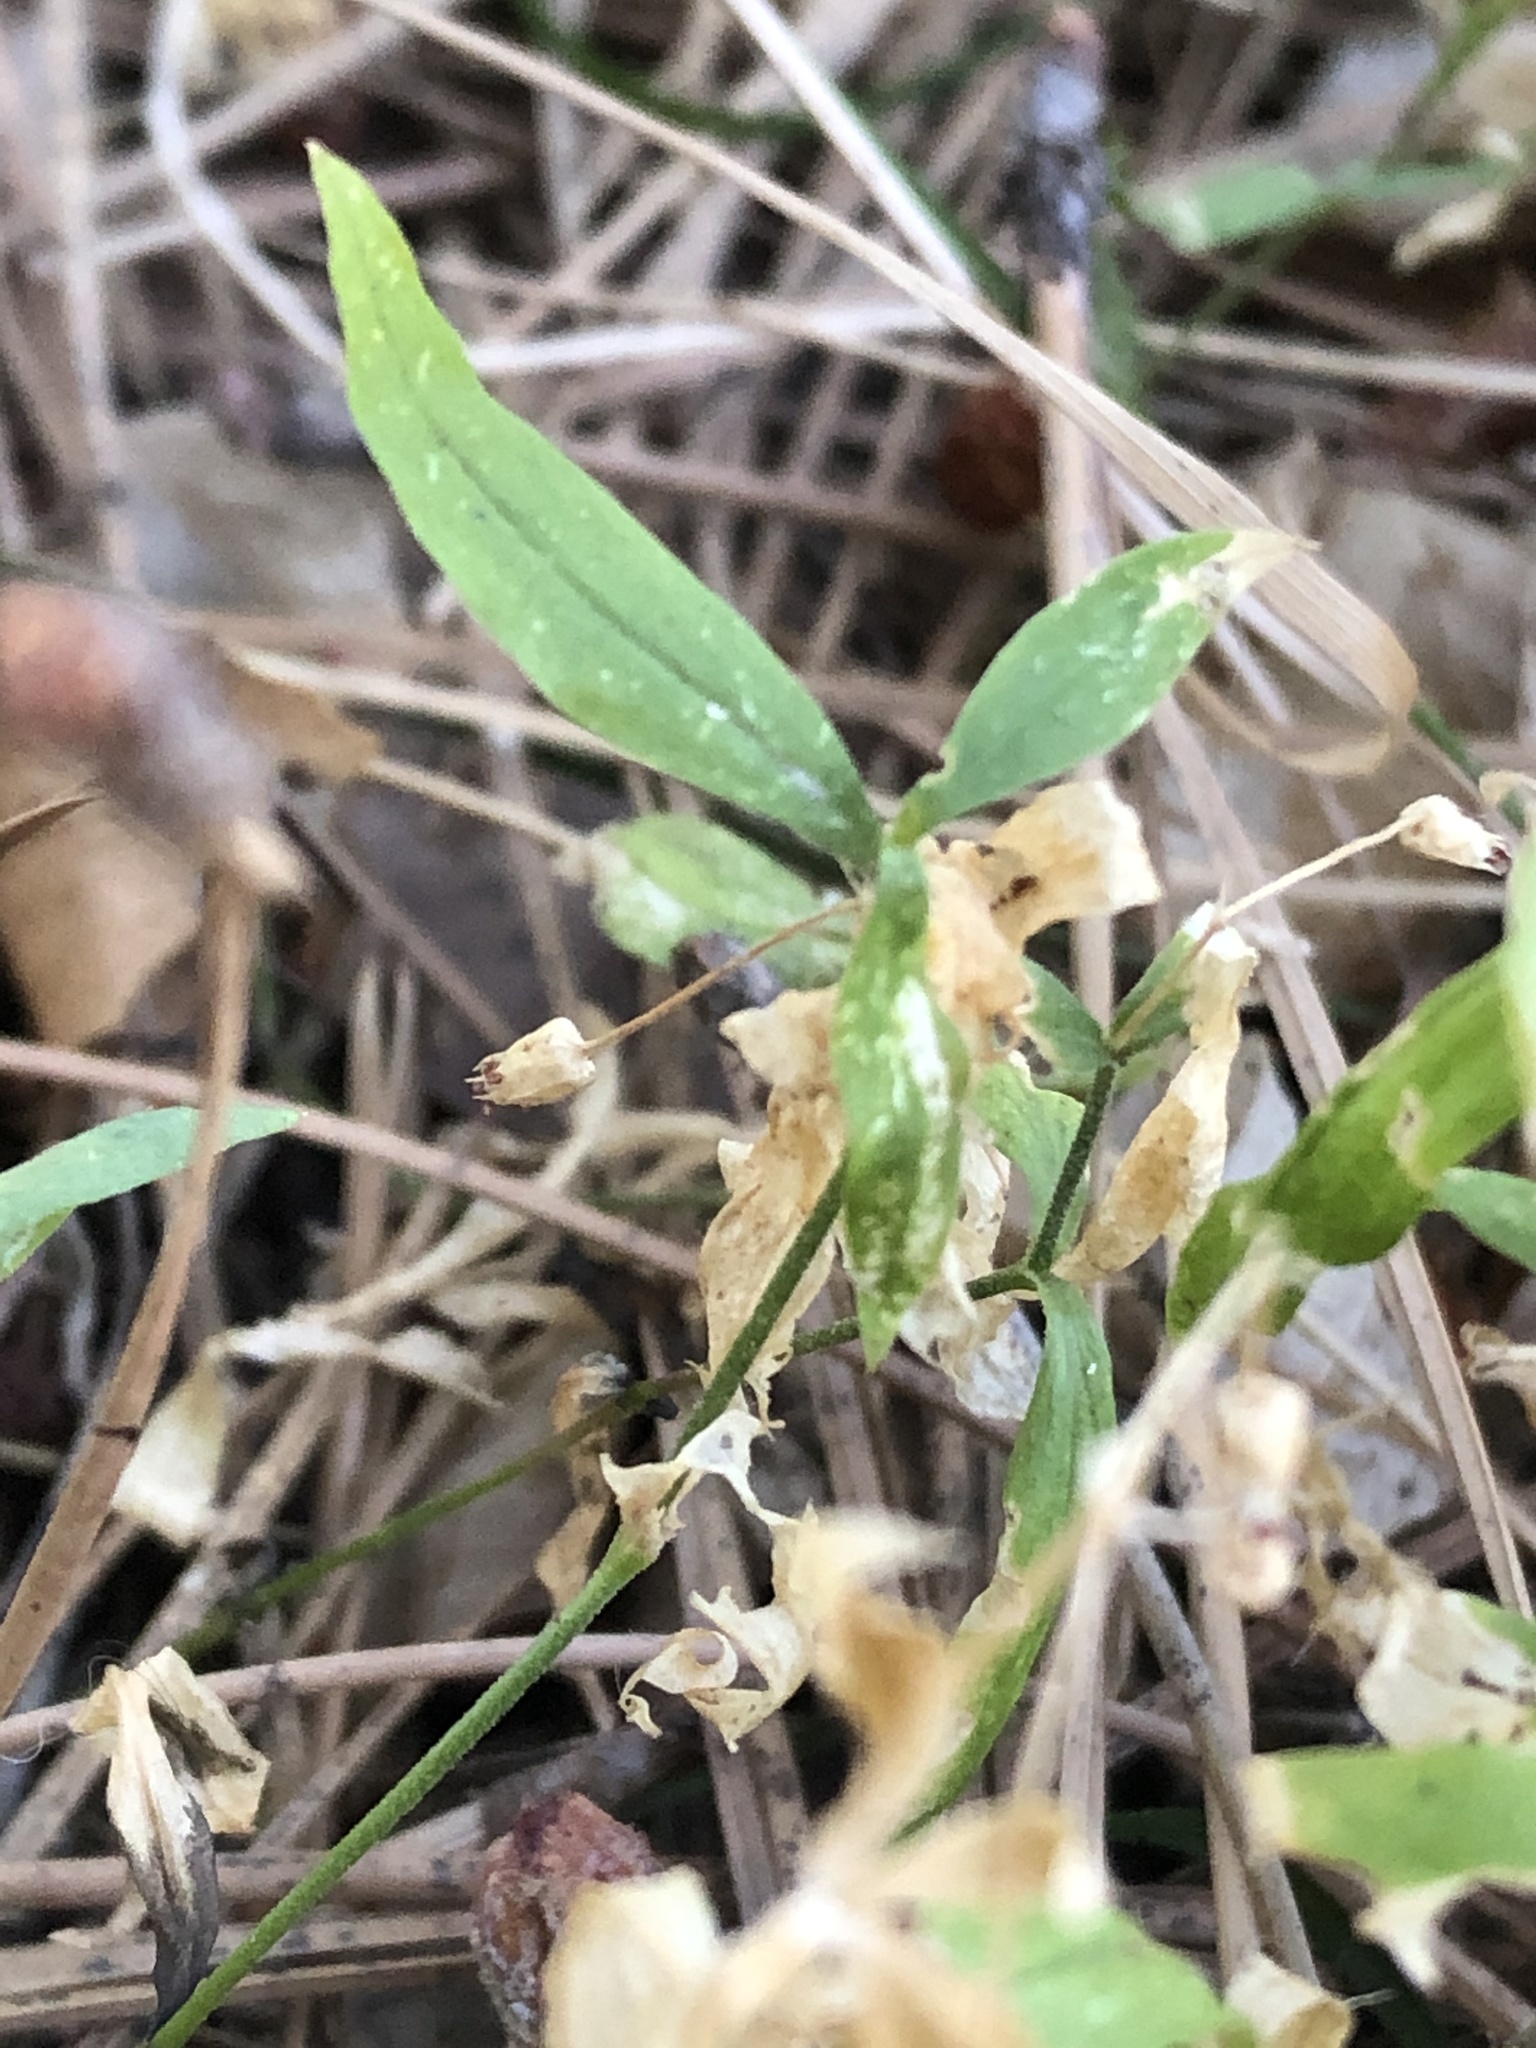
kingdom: Plantae
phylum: Tracheophyta
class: Magnoliopsida
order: Caryophyllales
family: Caryophyllaceae
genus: Moehringia
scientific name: Moehringia macrophylla
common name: Big-leaf sandwort
